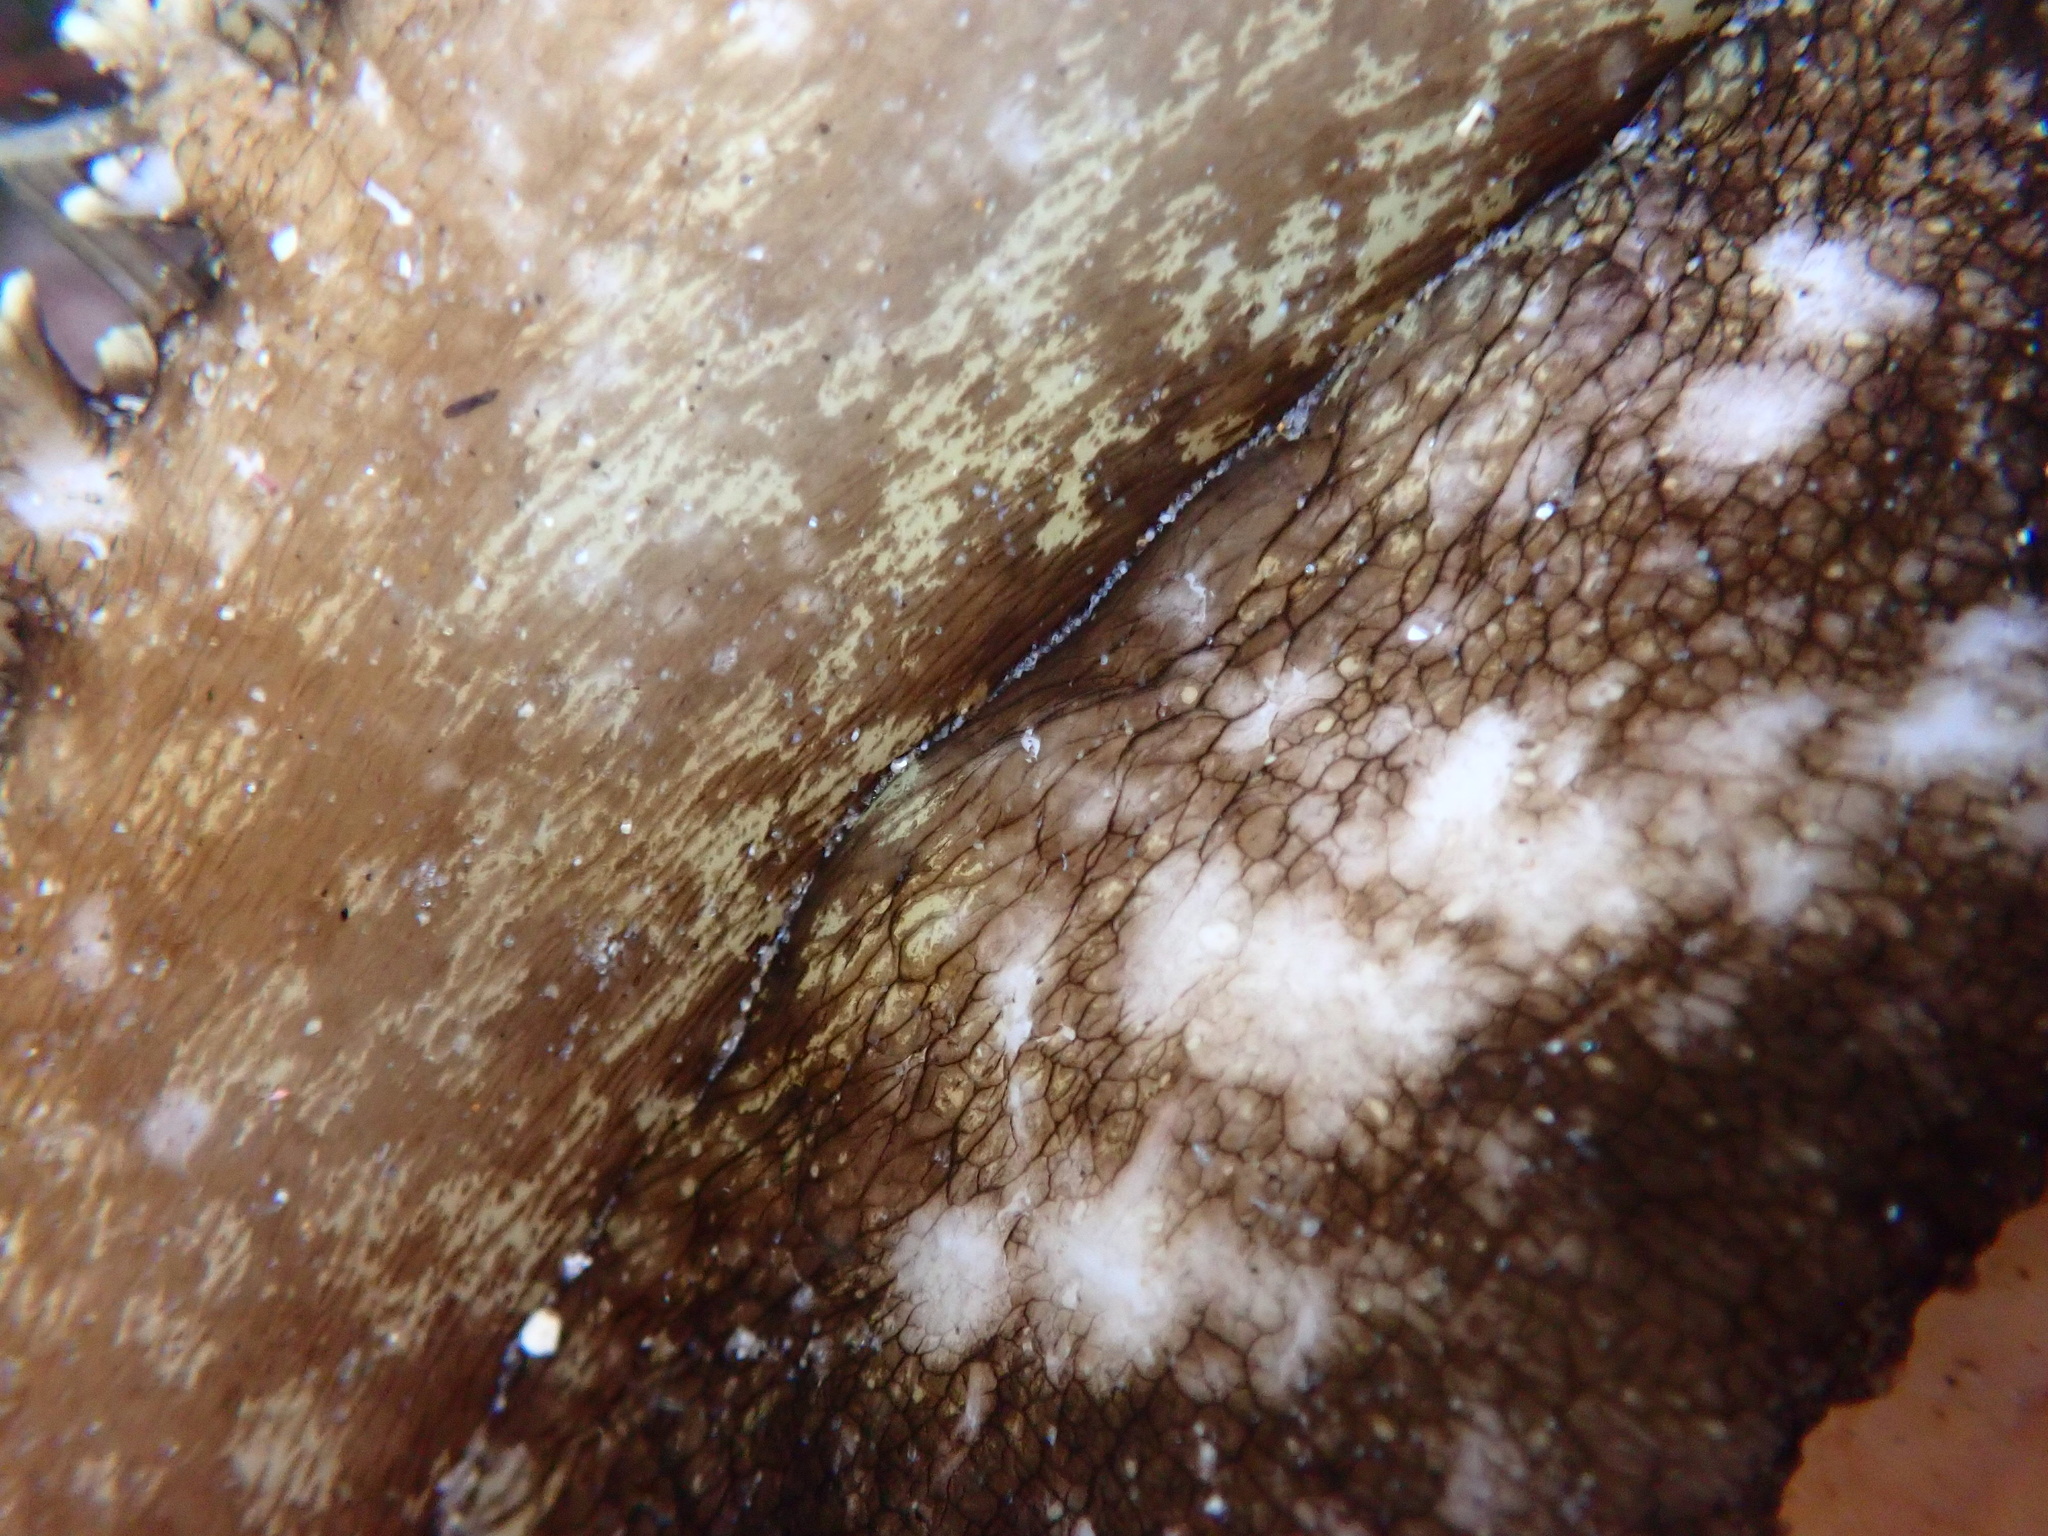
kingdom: Animalia
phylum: Mollusca
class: Gastropoda
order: Lepetellida
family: Haliotidae
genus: Haliotis
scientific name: Haliotis fulgens
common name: Green abalone
